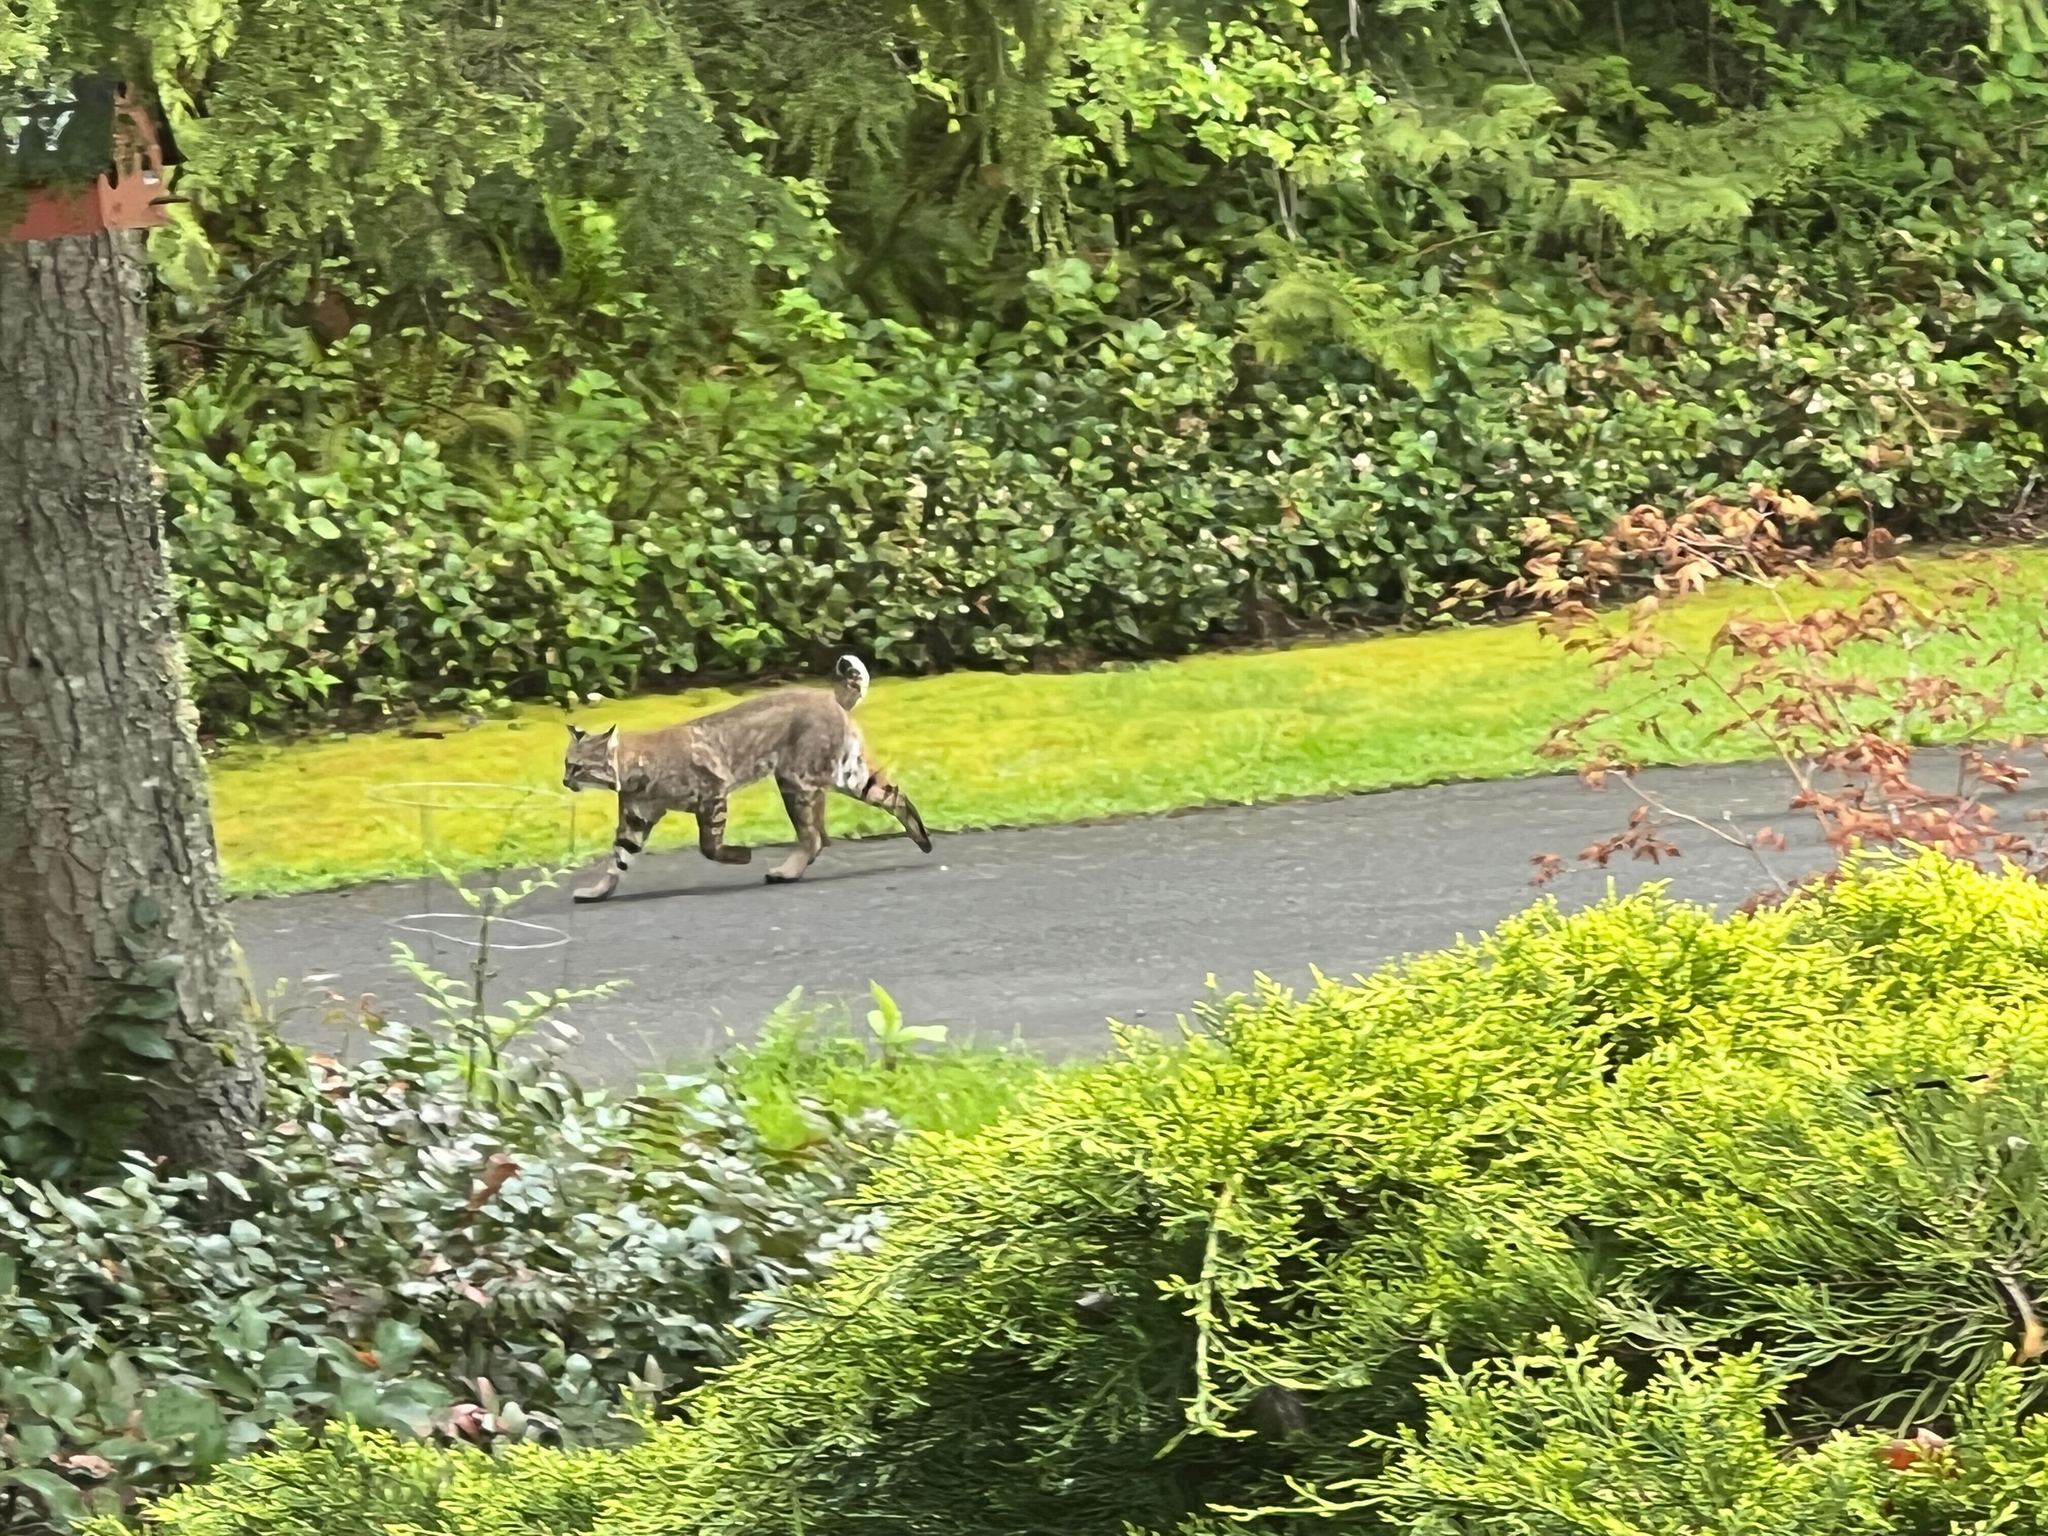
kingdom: Animalia
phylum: Chordata
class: Mammalia
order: Carnivora
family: Felidae
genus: Lynx
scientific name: Lynx rufus
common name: Bobcat
